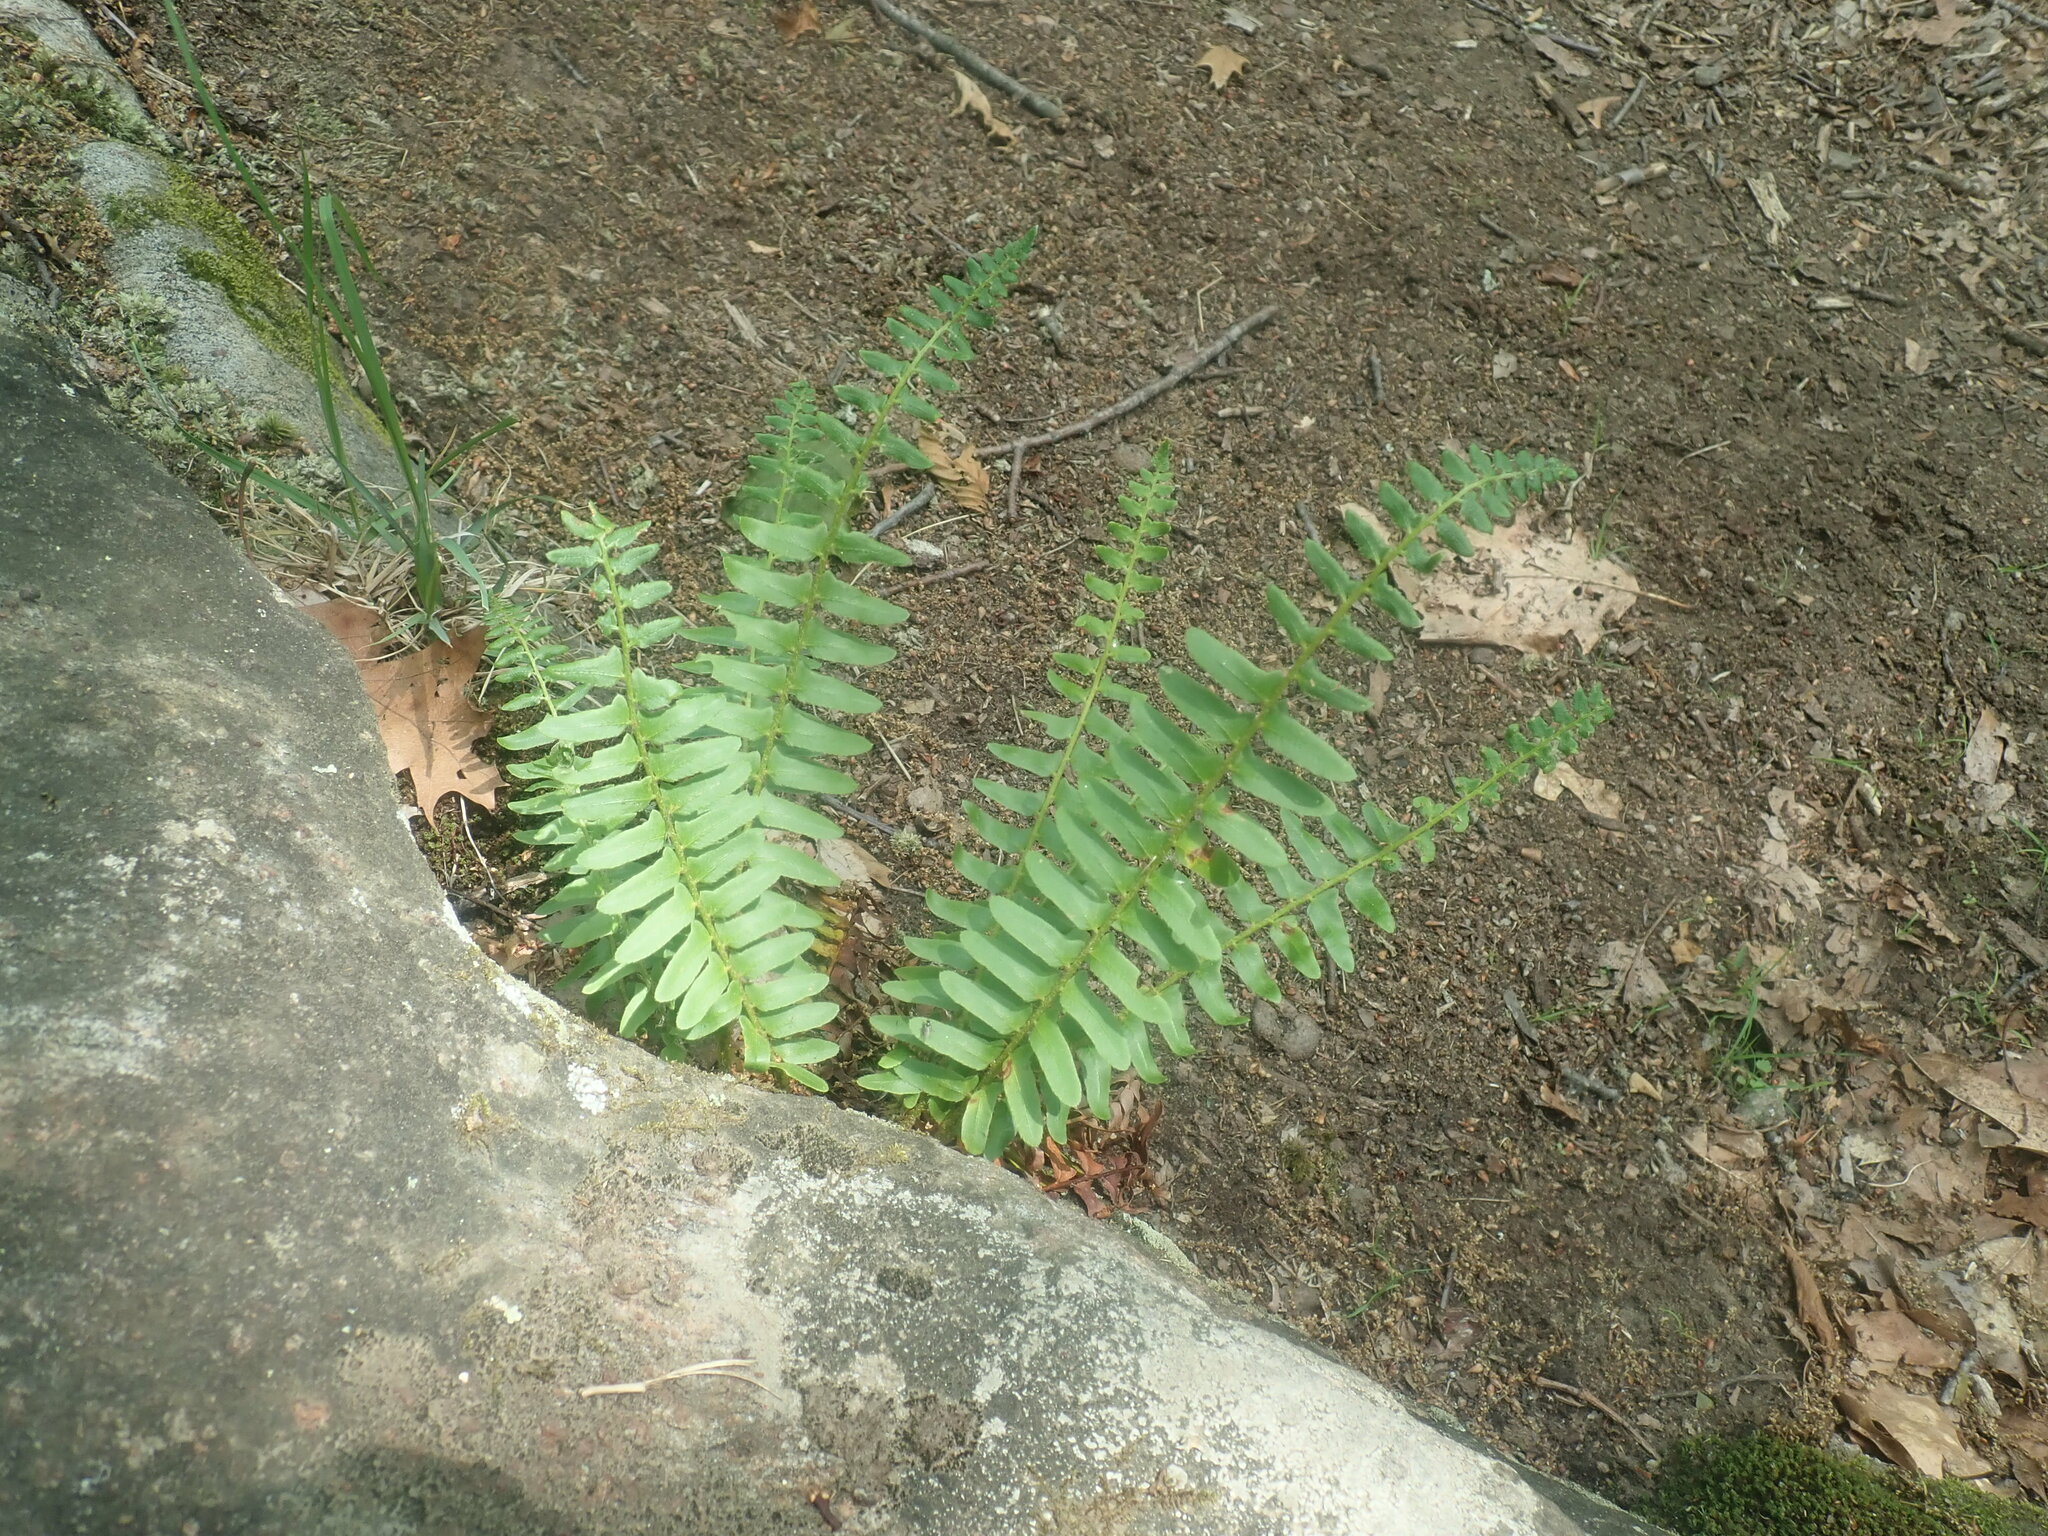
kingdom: Plantae
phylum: Tracheophyta
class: Polypodiopsida
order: Polypodiales
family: Dryopteridaceae
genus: Polystichum
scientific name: Polystichum acrostichoides
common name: Christmas fern
